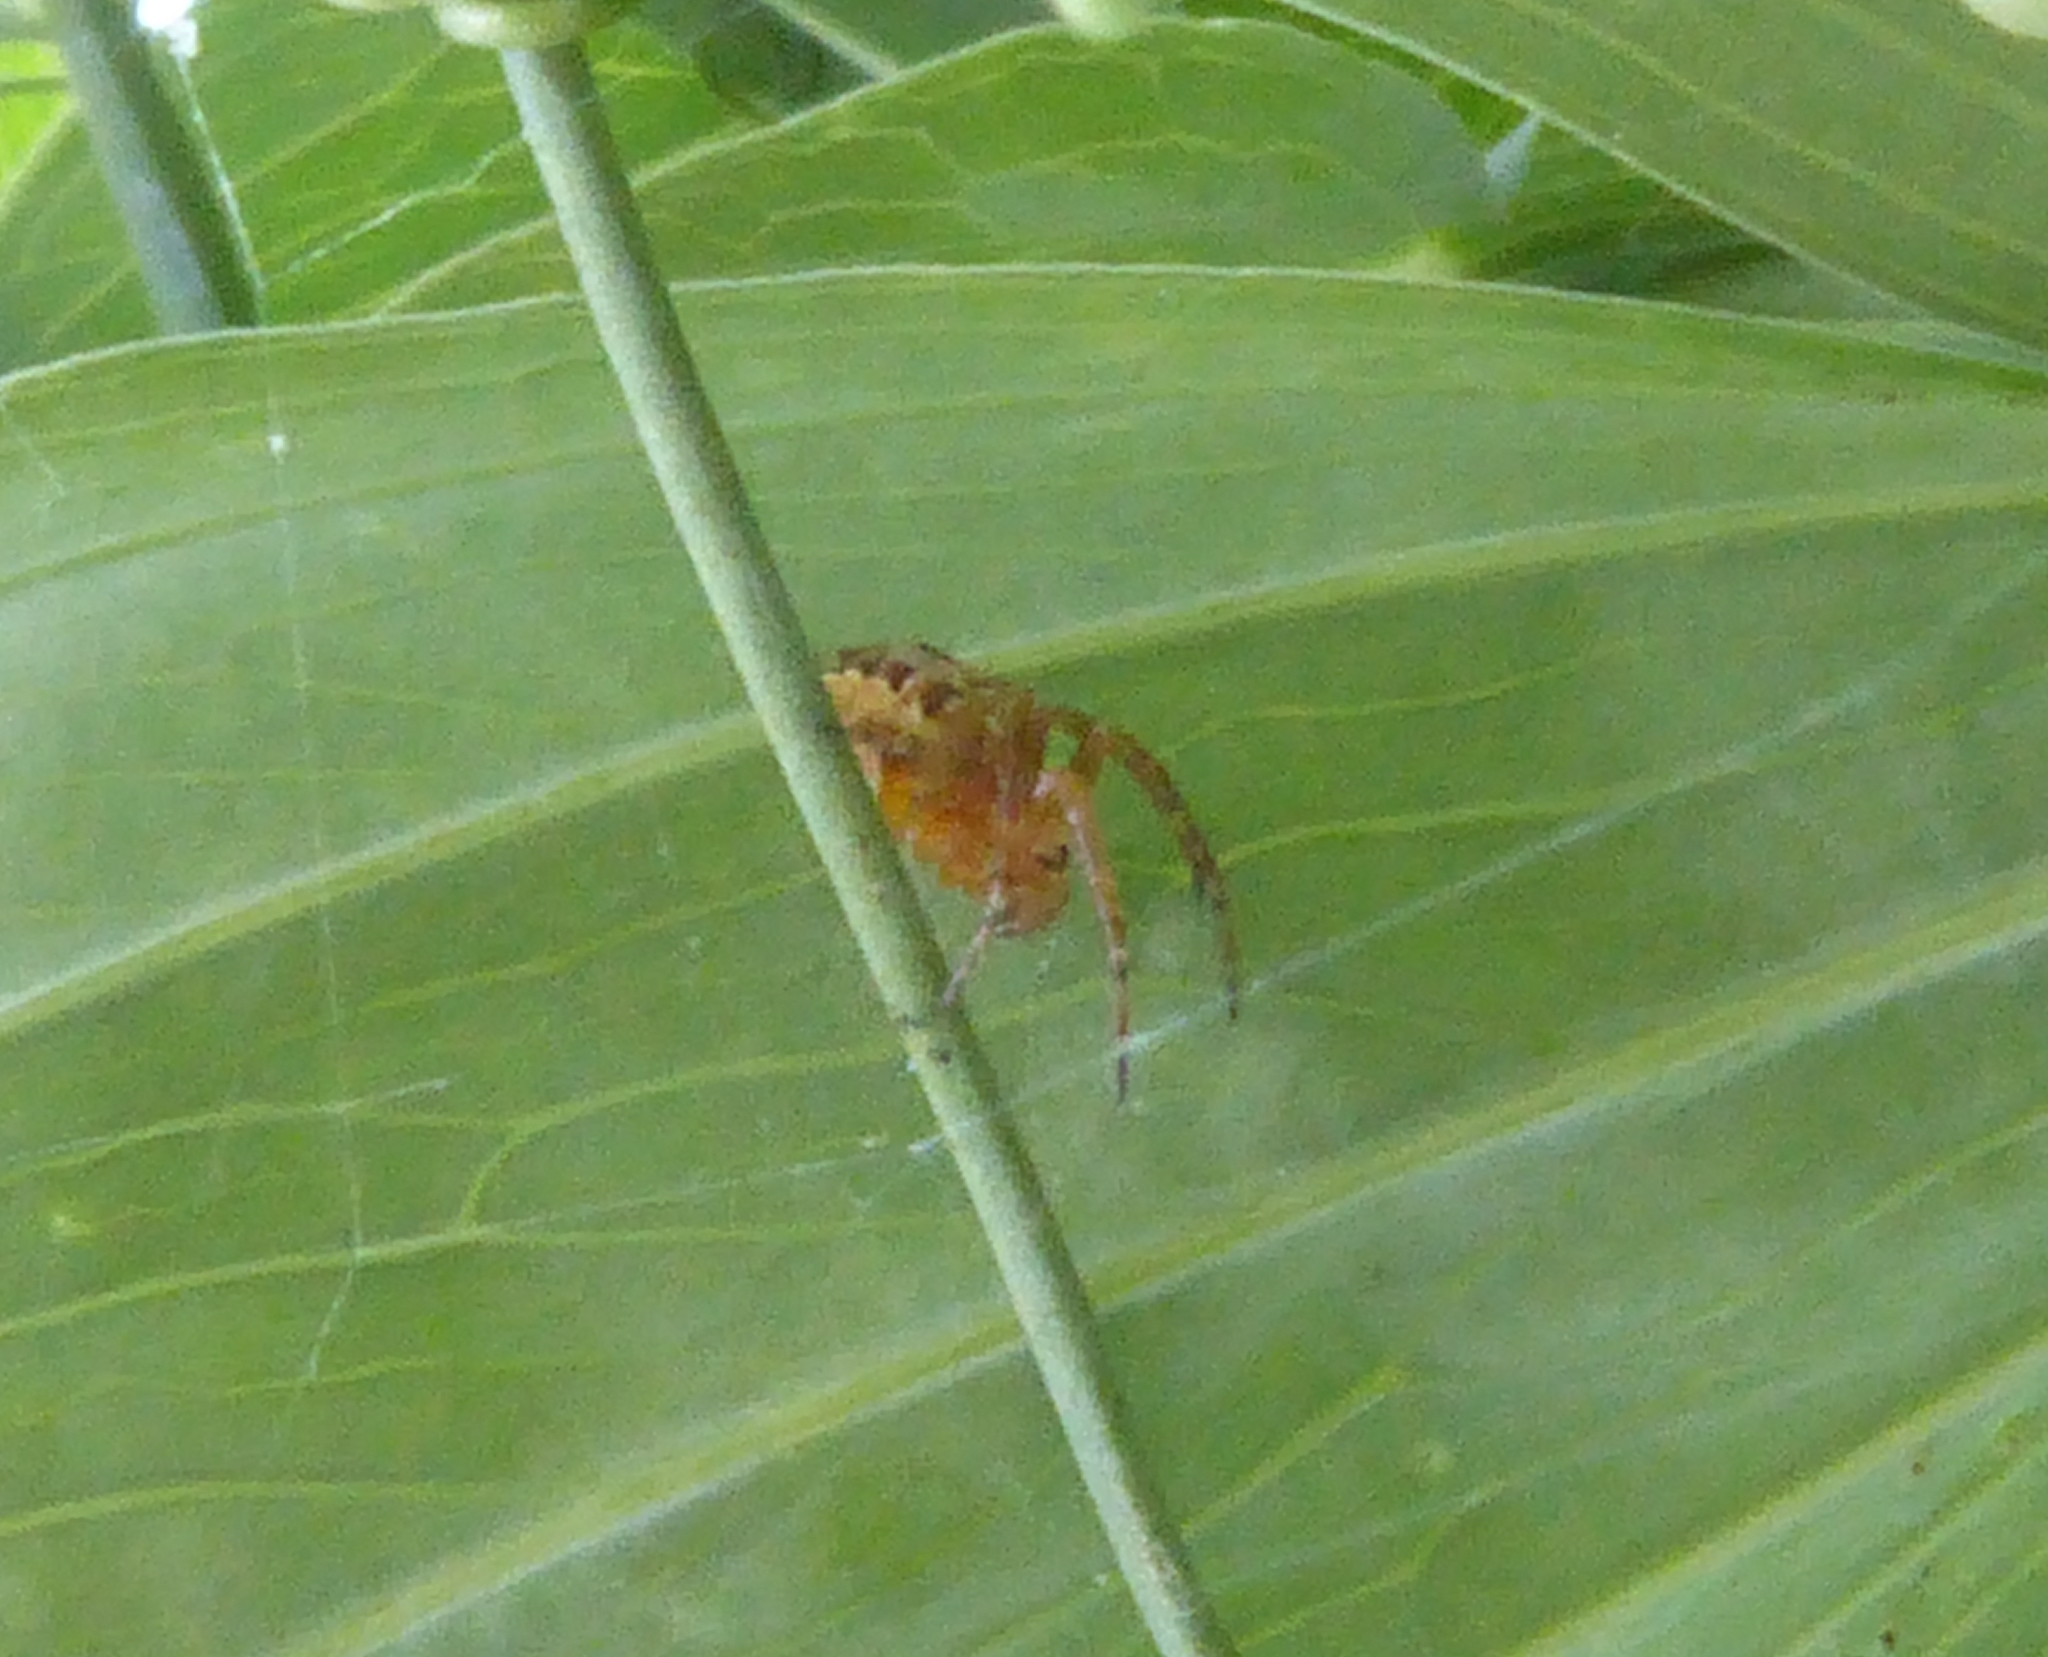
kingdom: Animalia
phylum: Arthropoda
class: Arachnida
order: Araneae
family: Araneidae
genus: Araneus
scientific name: Araneus diadematus
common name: Cross orbweaver
